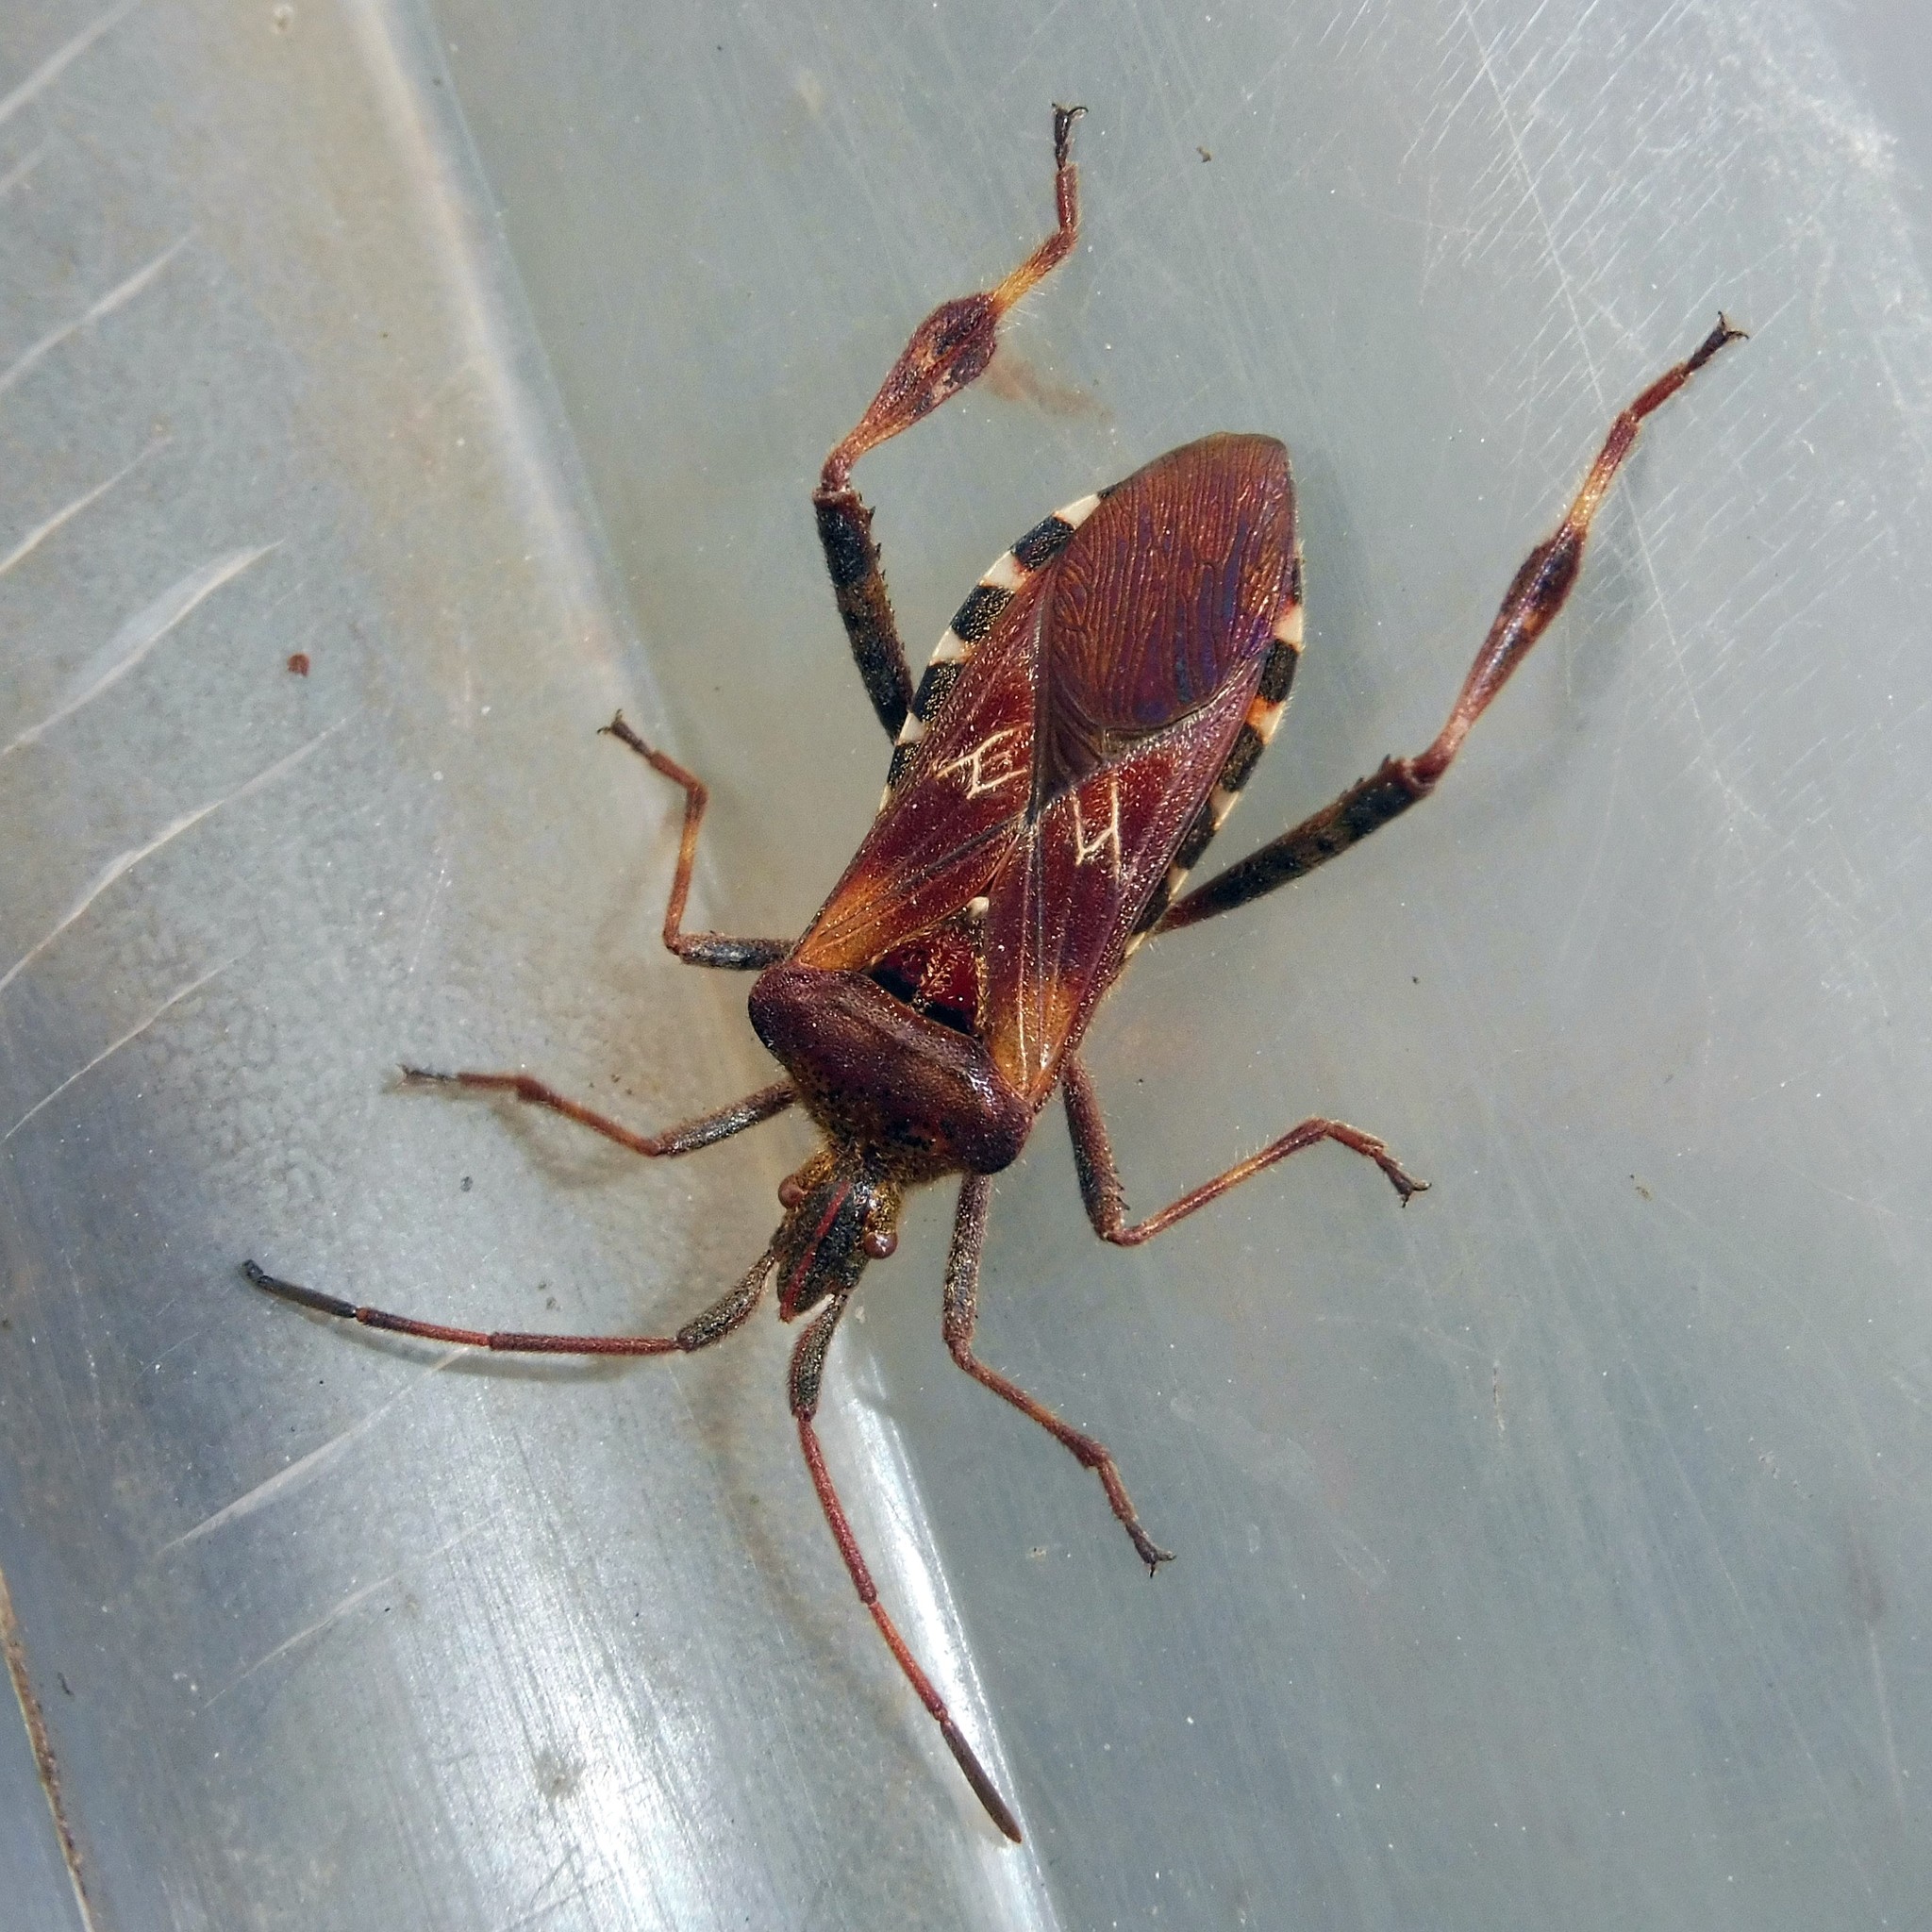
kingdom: Animalia
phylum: Arthropoda
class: Insecta
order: Hemiptera
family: Coreidae
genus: Leptoglossus
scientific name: Leptoglossus occidentalis
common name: Western conifer-seed bug
